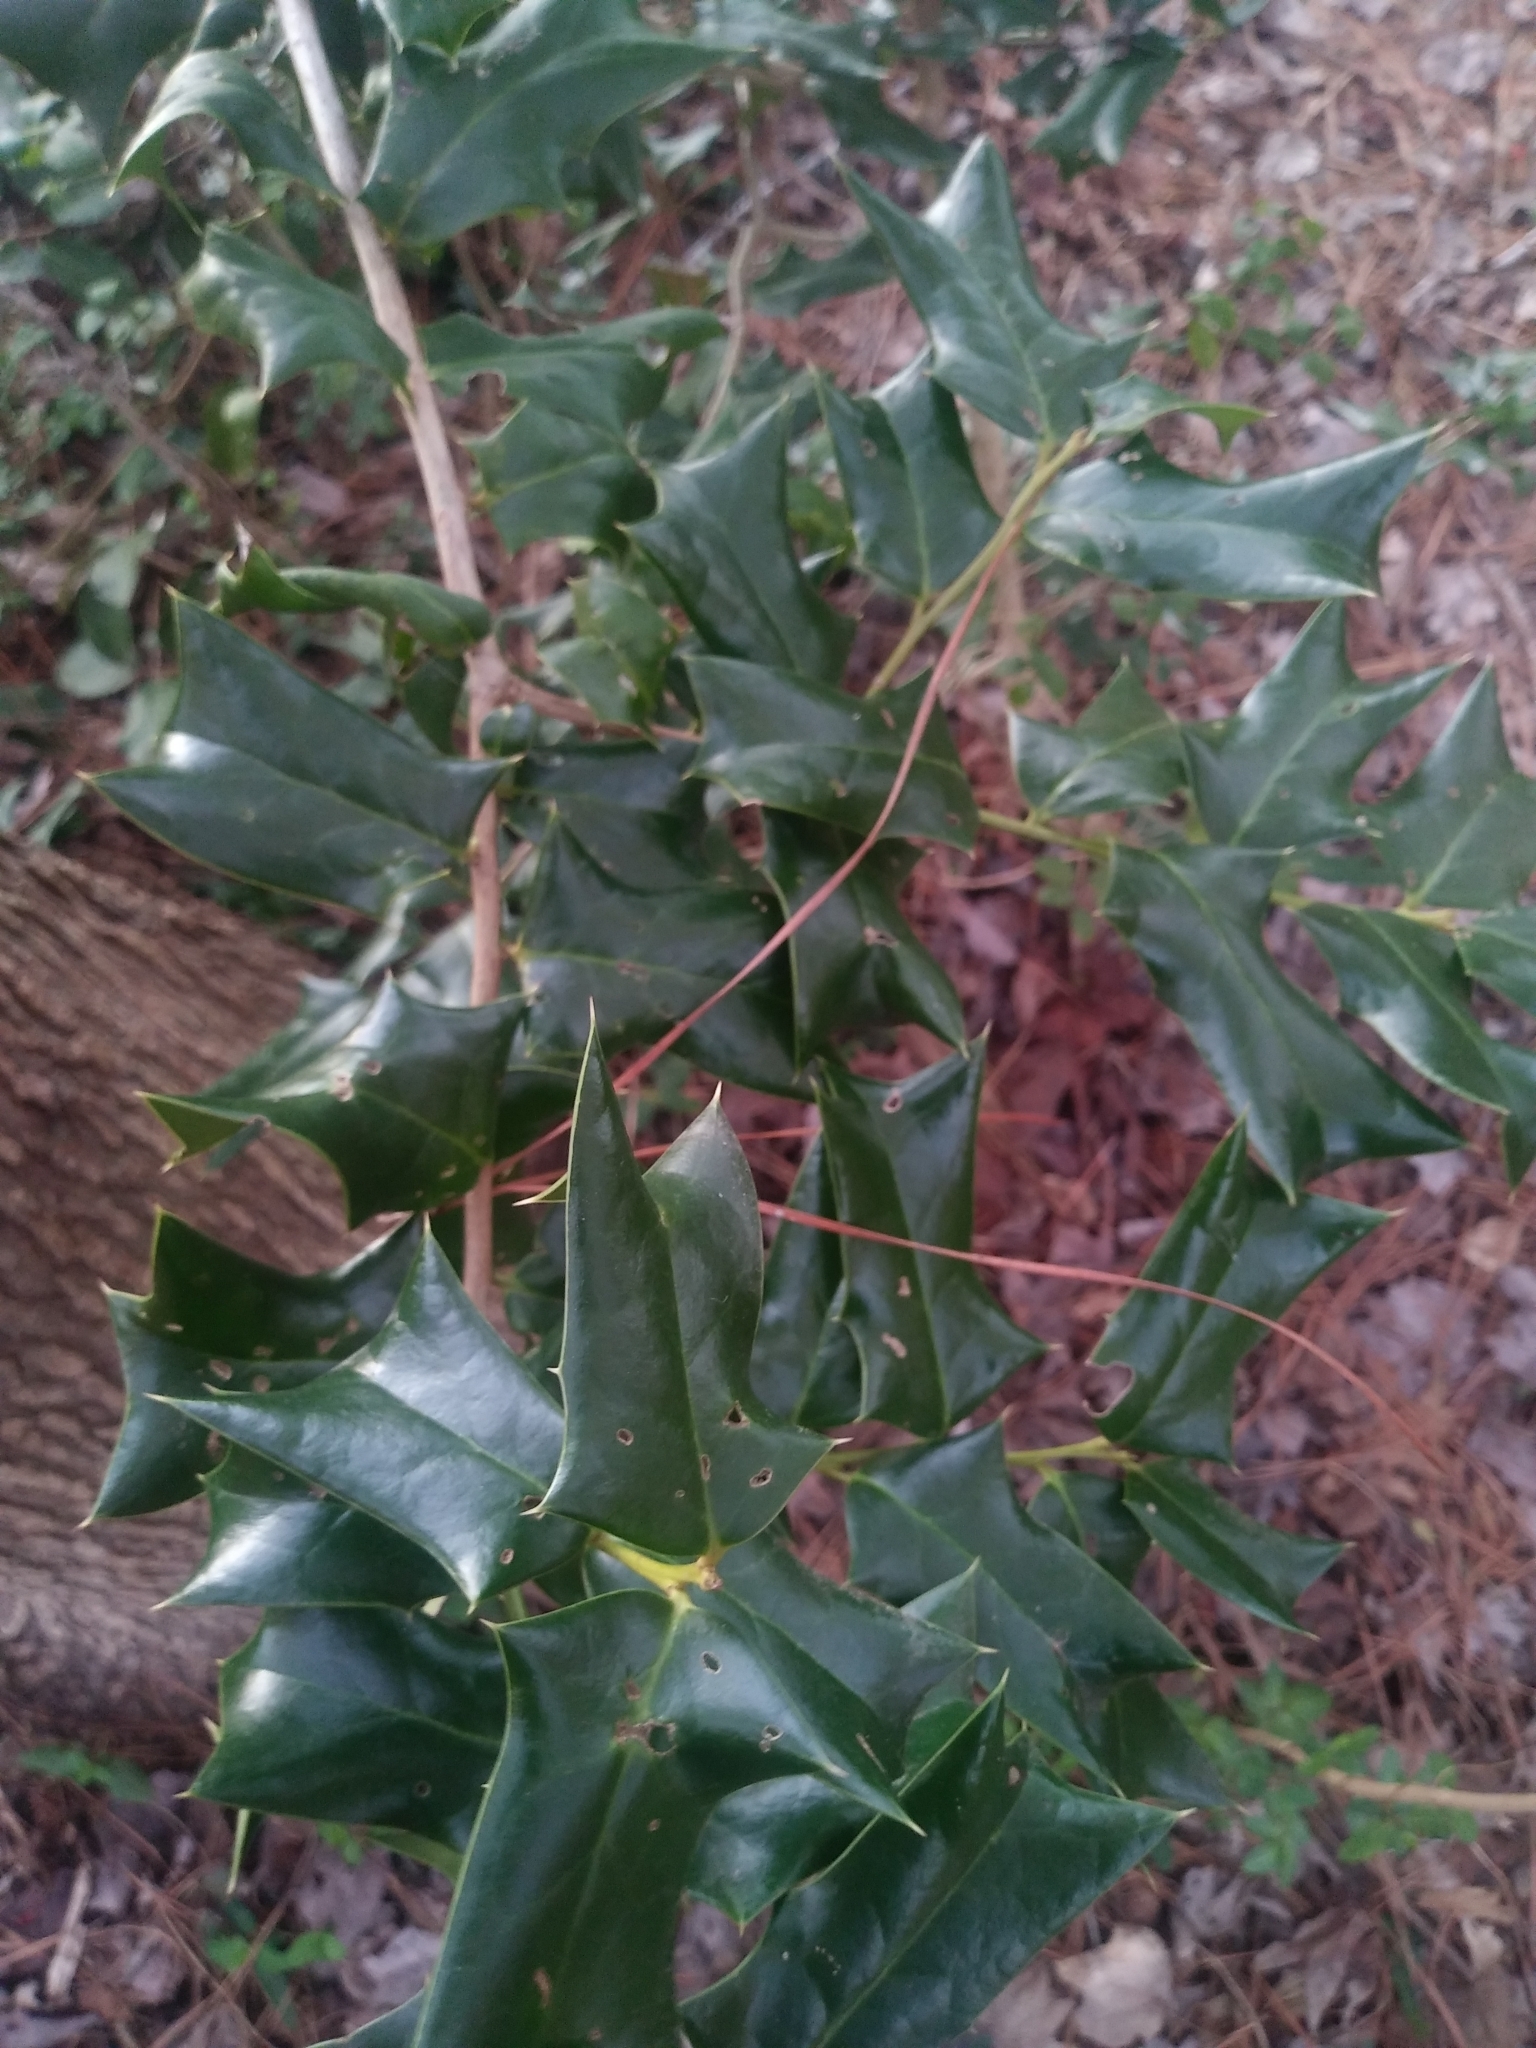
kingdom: Plantae
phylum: Tracheophyta
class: Magnoliopsida
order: Aquifoliales
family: Aquifoliaceae
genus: Ilex
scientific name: Ilex cornuta
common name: Chinese holly
